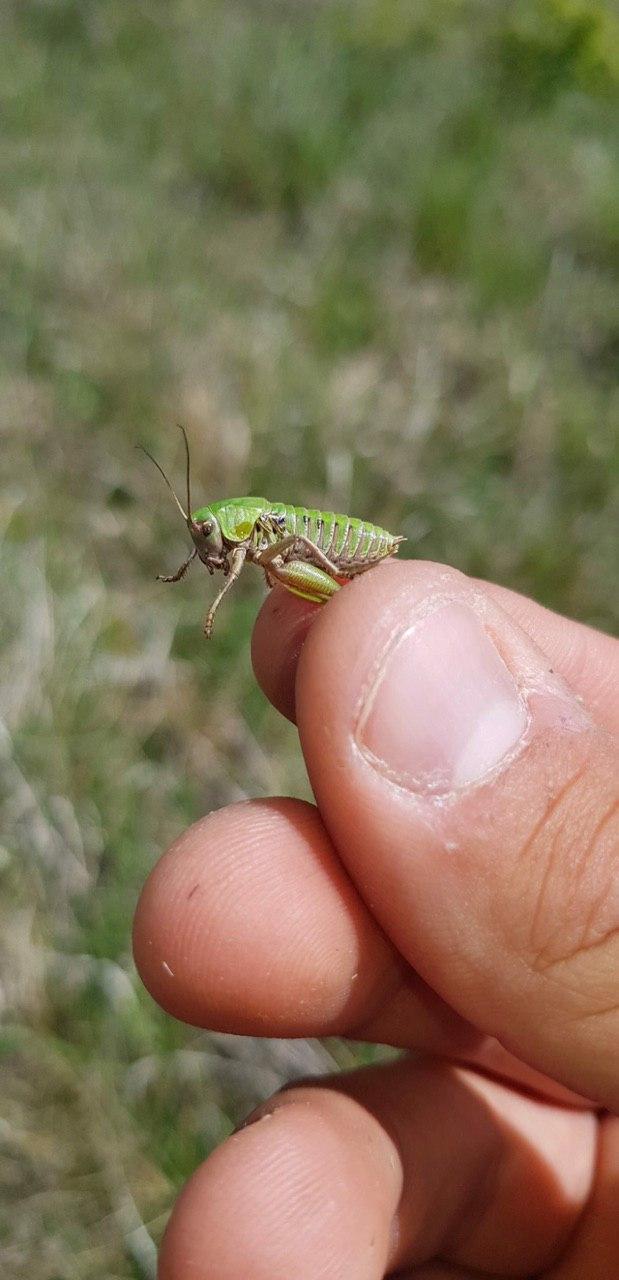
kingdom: Animalia
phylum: Arthropoda
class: Insecta
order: Orthoptera
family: Tettigoniidae
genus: Decticus
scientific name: Decticus verrucivorus
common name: Wart-biter
